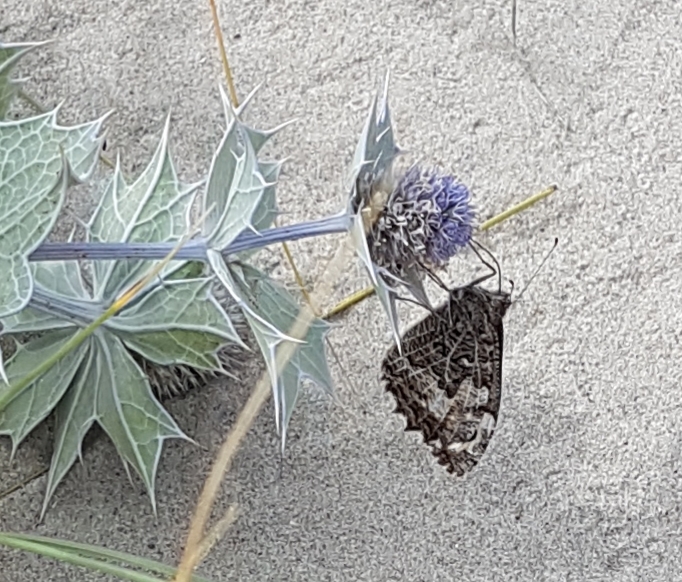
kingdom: Animalia
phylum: Arthropoda
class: Insecta
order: Lepidoptera
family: Nymphalidae
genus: Hipparchia
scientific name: Hipparchia semele
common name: Grayling
